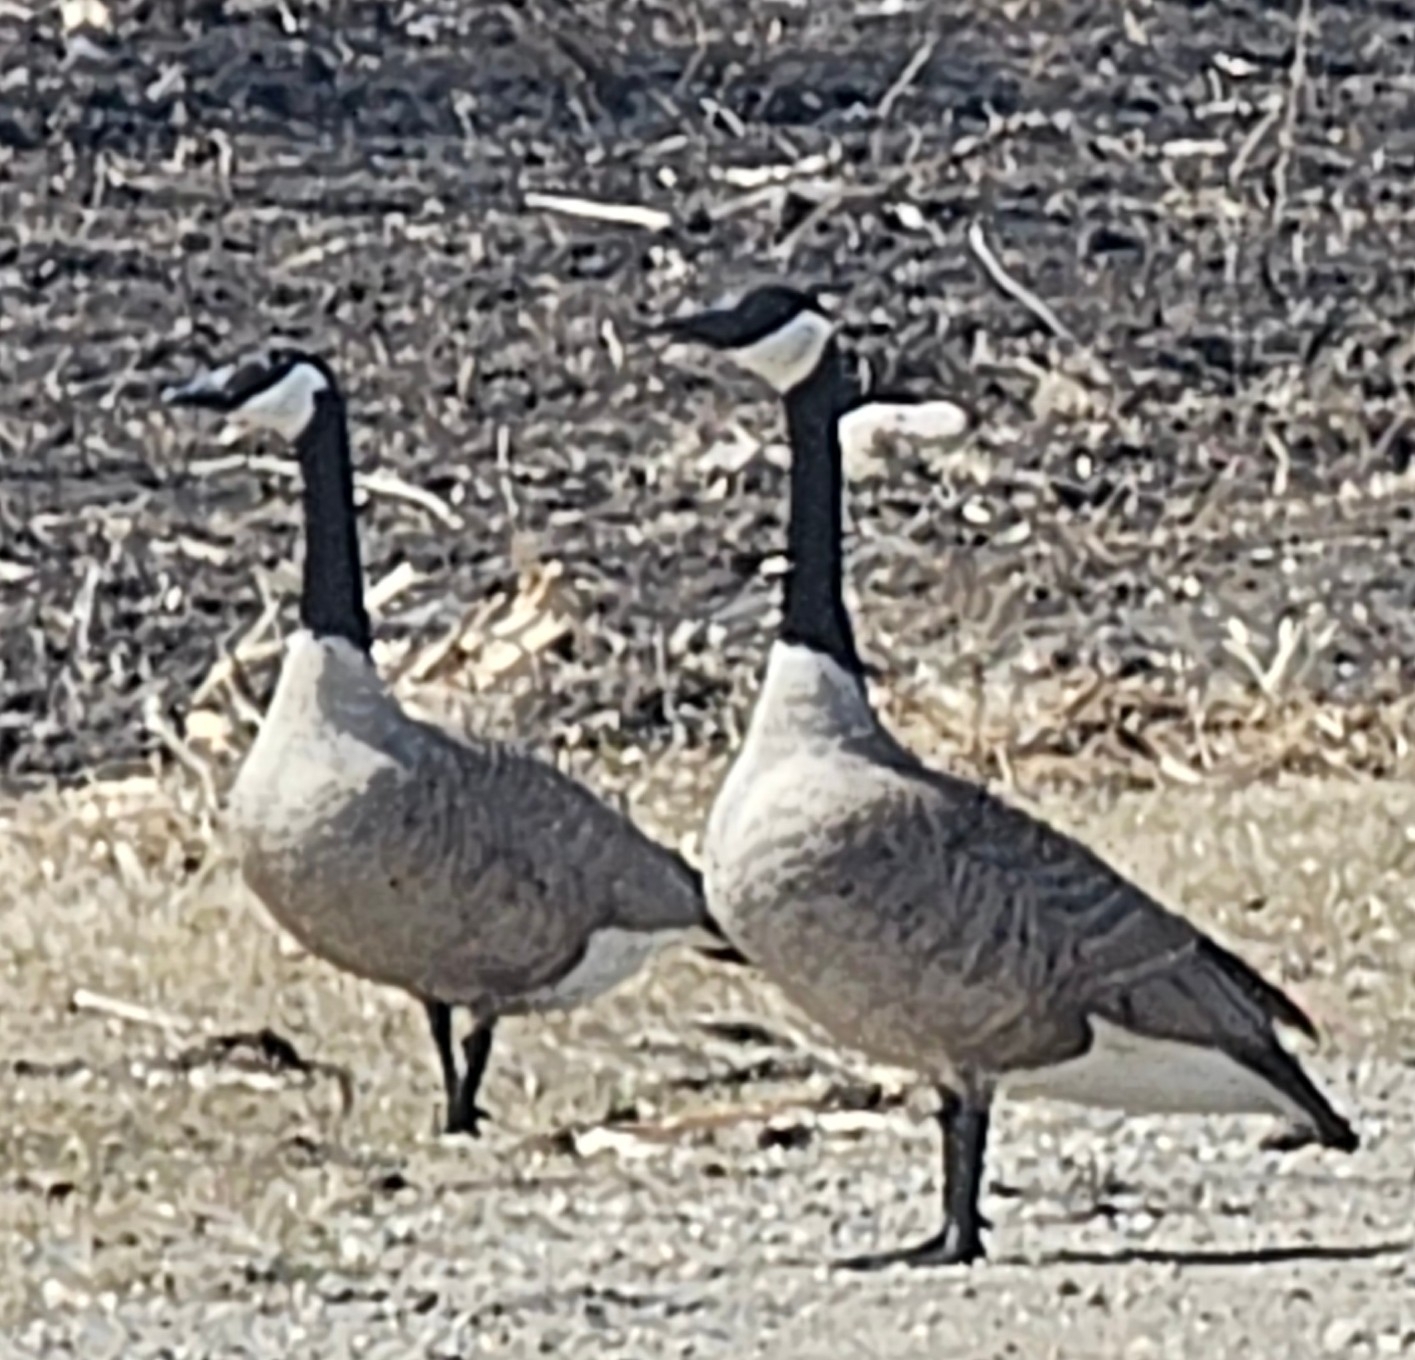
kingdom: Animalia
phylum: Chordata
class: Aves
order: Anseriformes
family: Anatidae
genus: Branta
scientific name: Branta canadensis
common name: Canada goose
